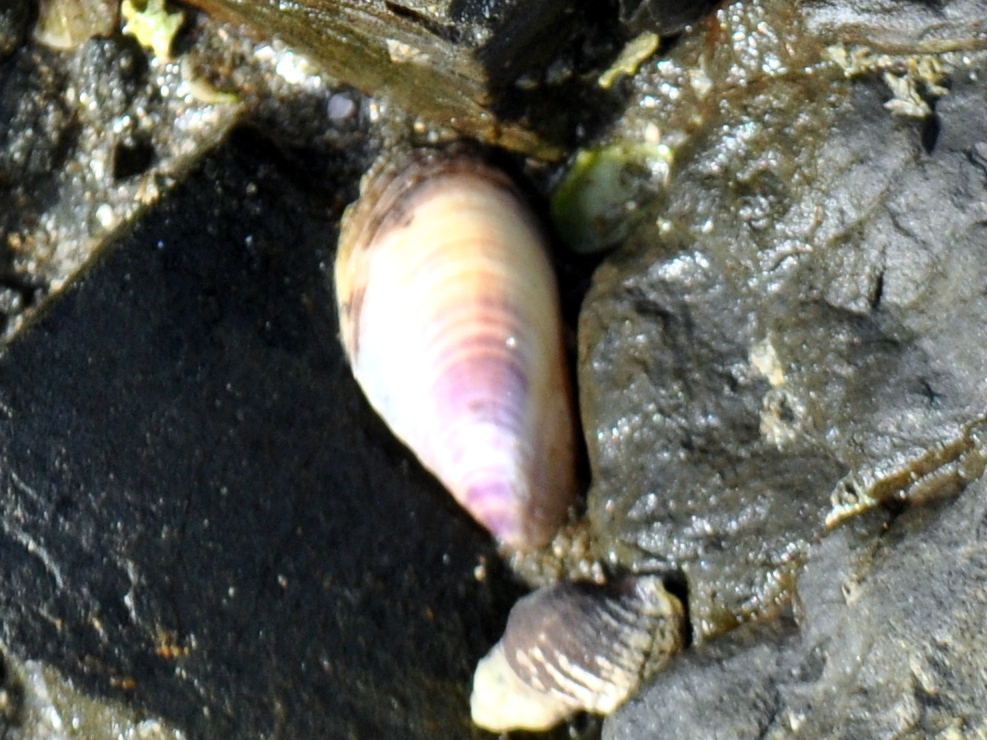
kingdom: Animalia
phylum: Mollusca
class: Bivalvia
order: Mytilida
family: Mytilidae
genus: Modiolus
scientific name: Modiolus areolatus
